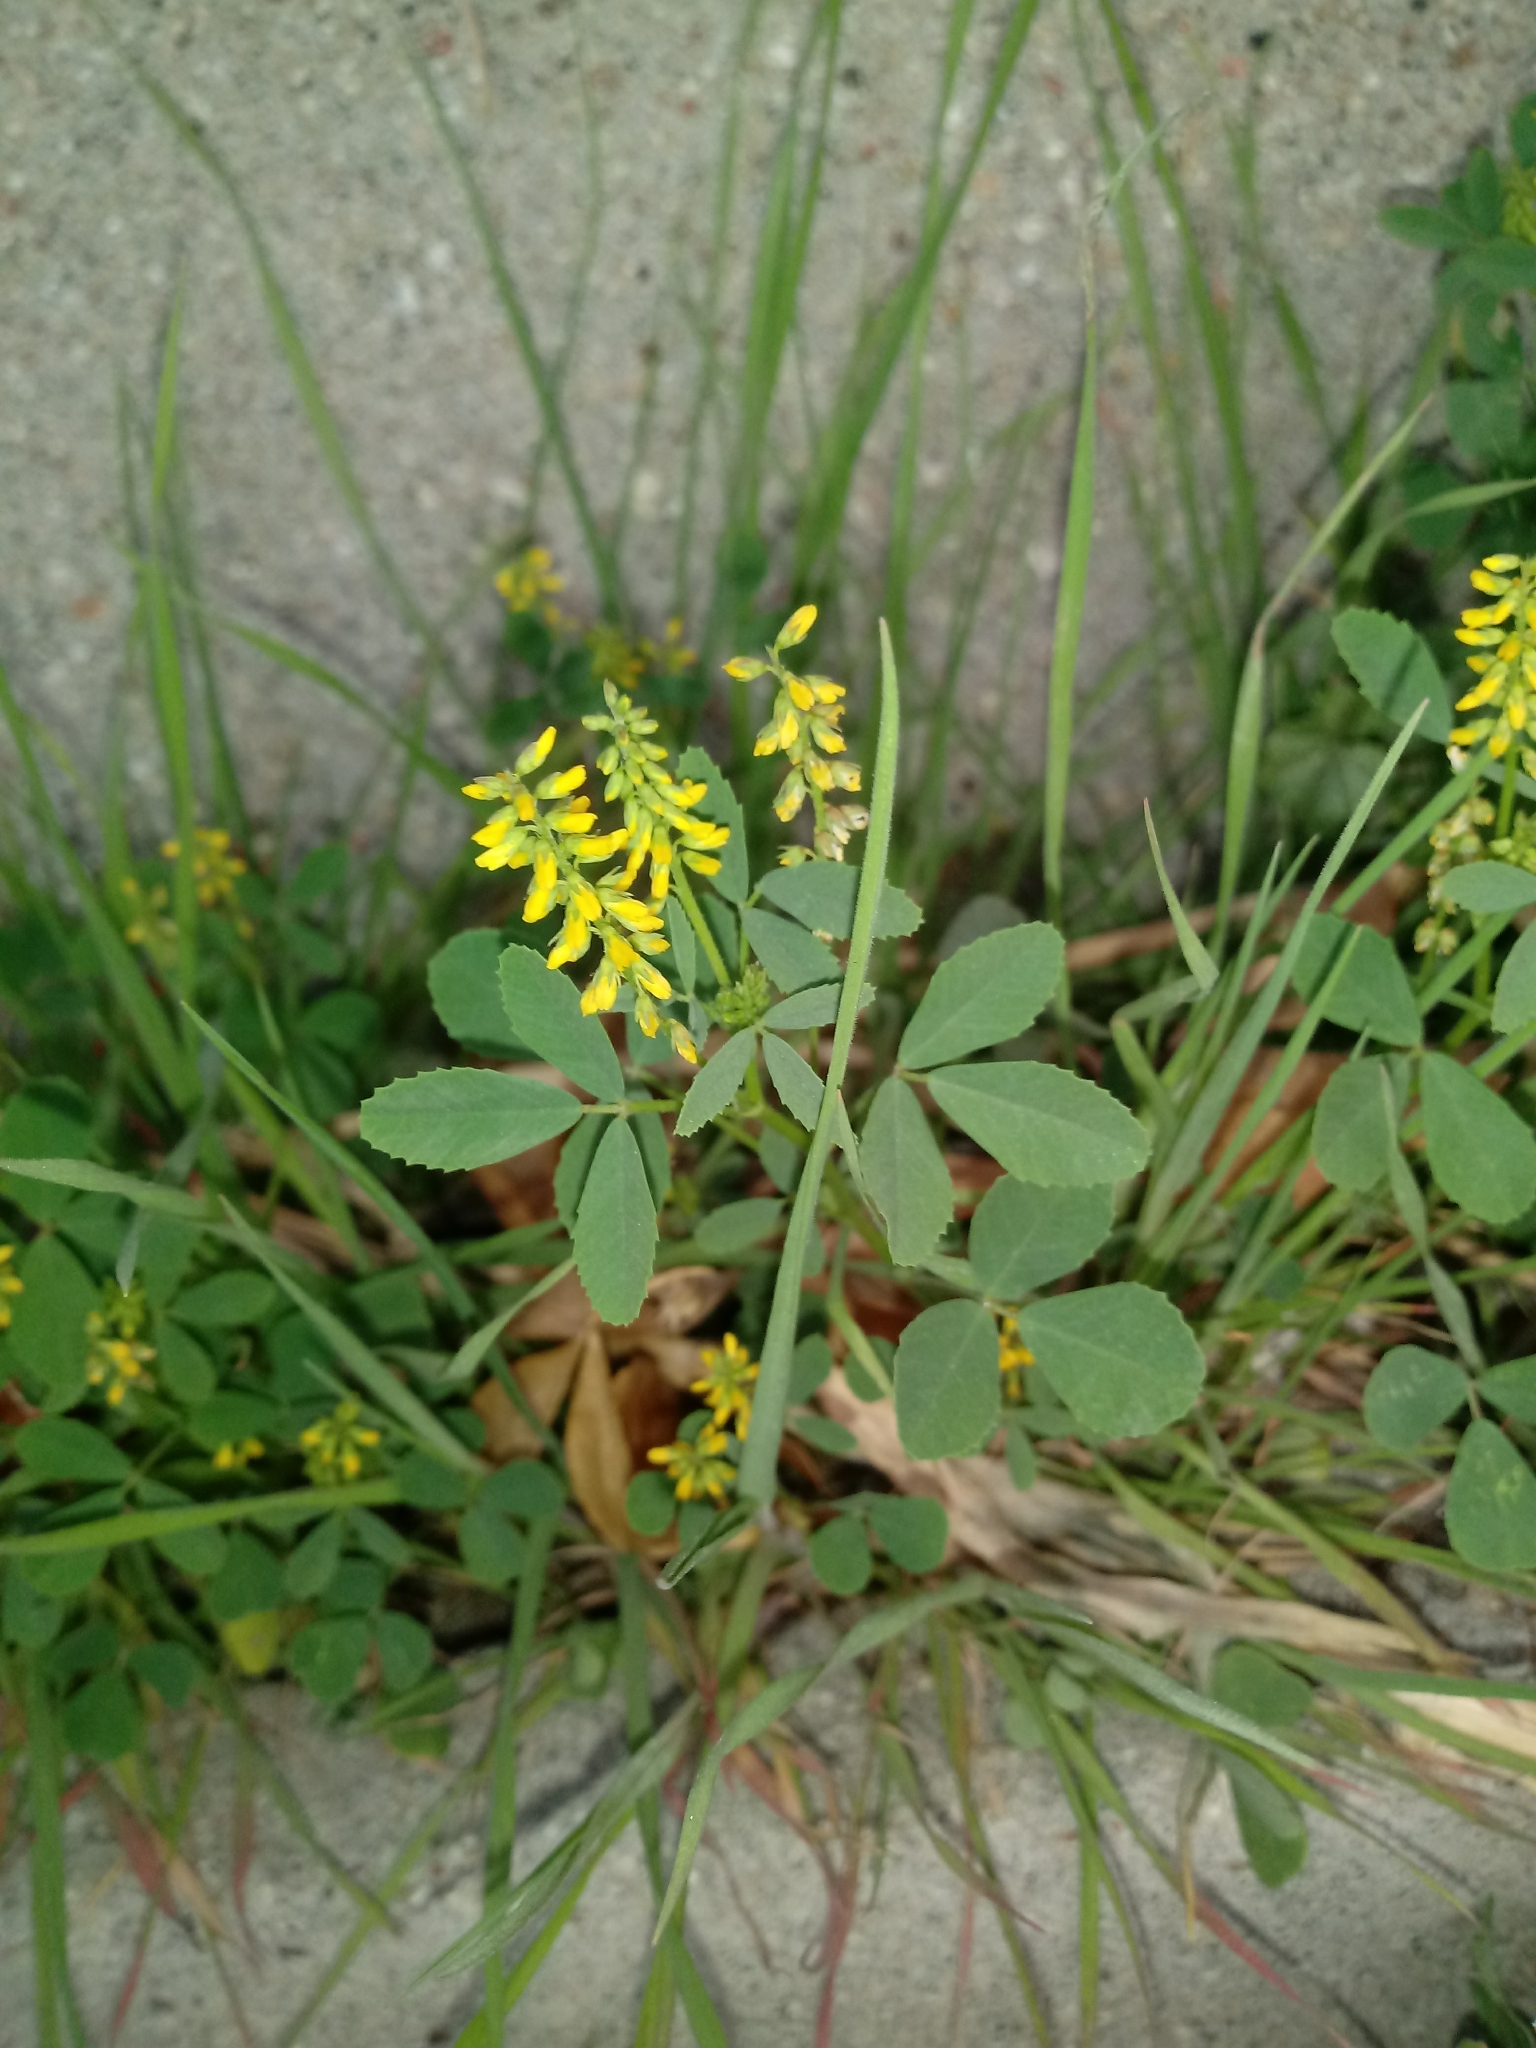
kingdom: Plantae
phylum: Tracheophyta
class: Magnoliopsida
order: Fabales
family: Fabaceae
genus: Melilotus
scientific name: Melilotus indicus
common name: Small melilot
